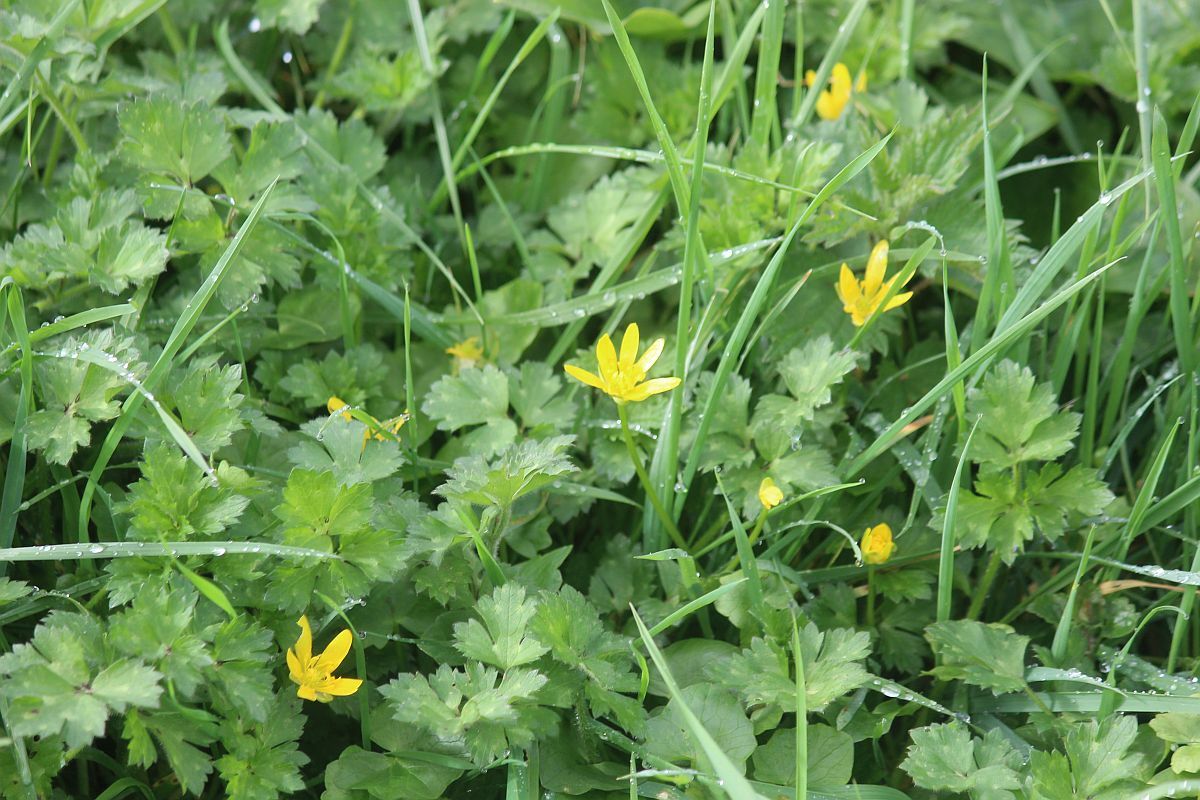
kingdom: Plantae
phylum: Tracheophyta
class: Magnoliopsida
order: Ranunculales
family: Ranunculaceae
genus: Ficaria
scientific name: Ficaria verna
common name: Lesser celandine
